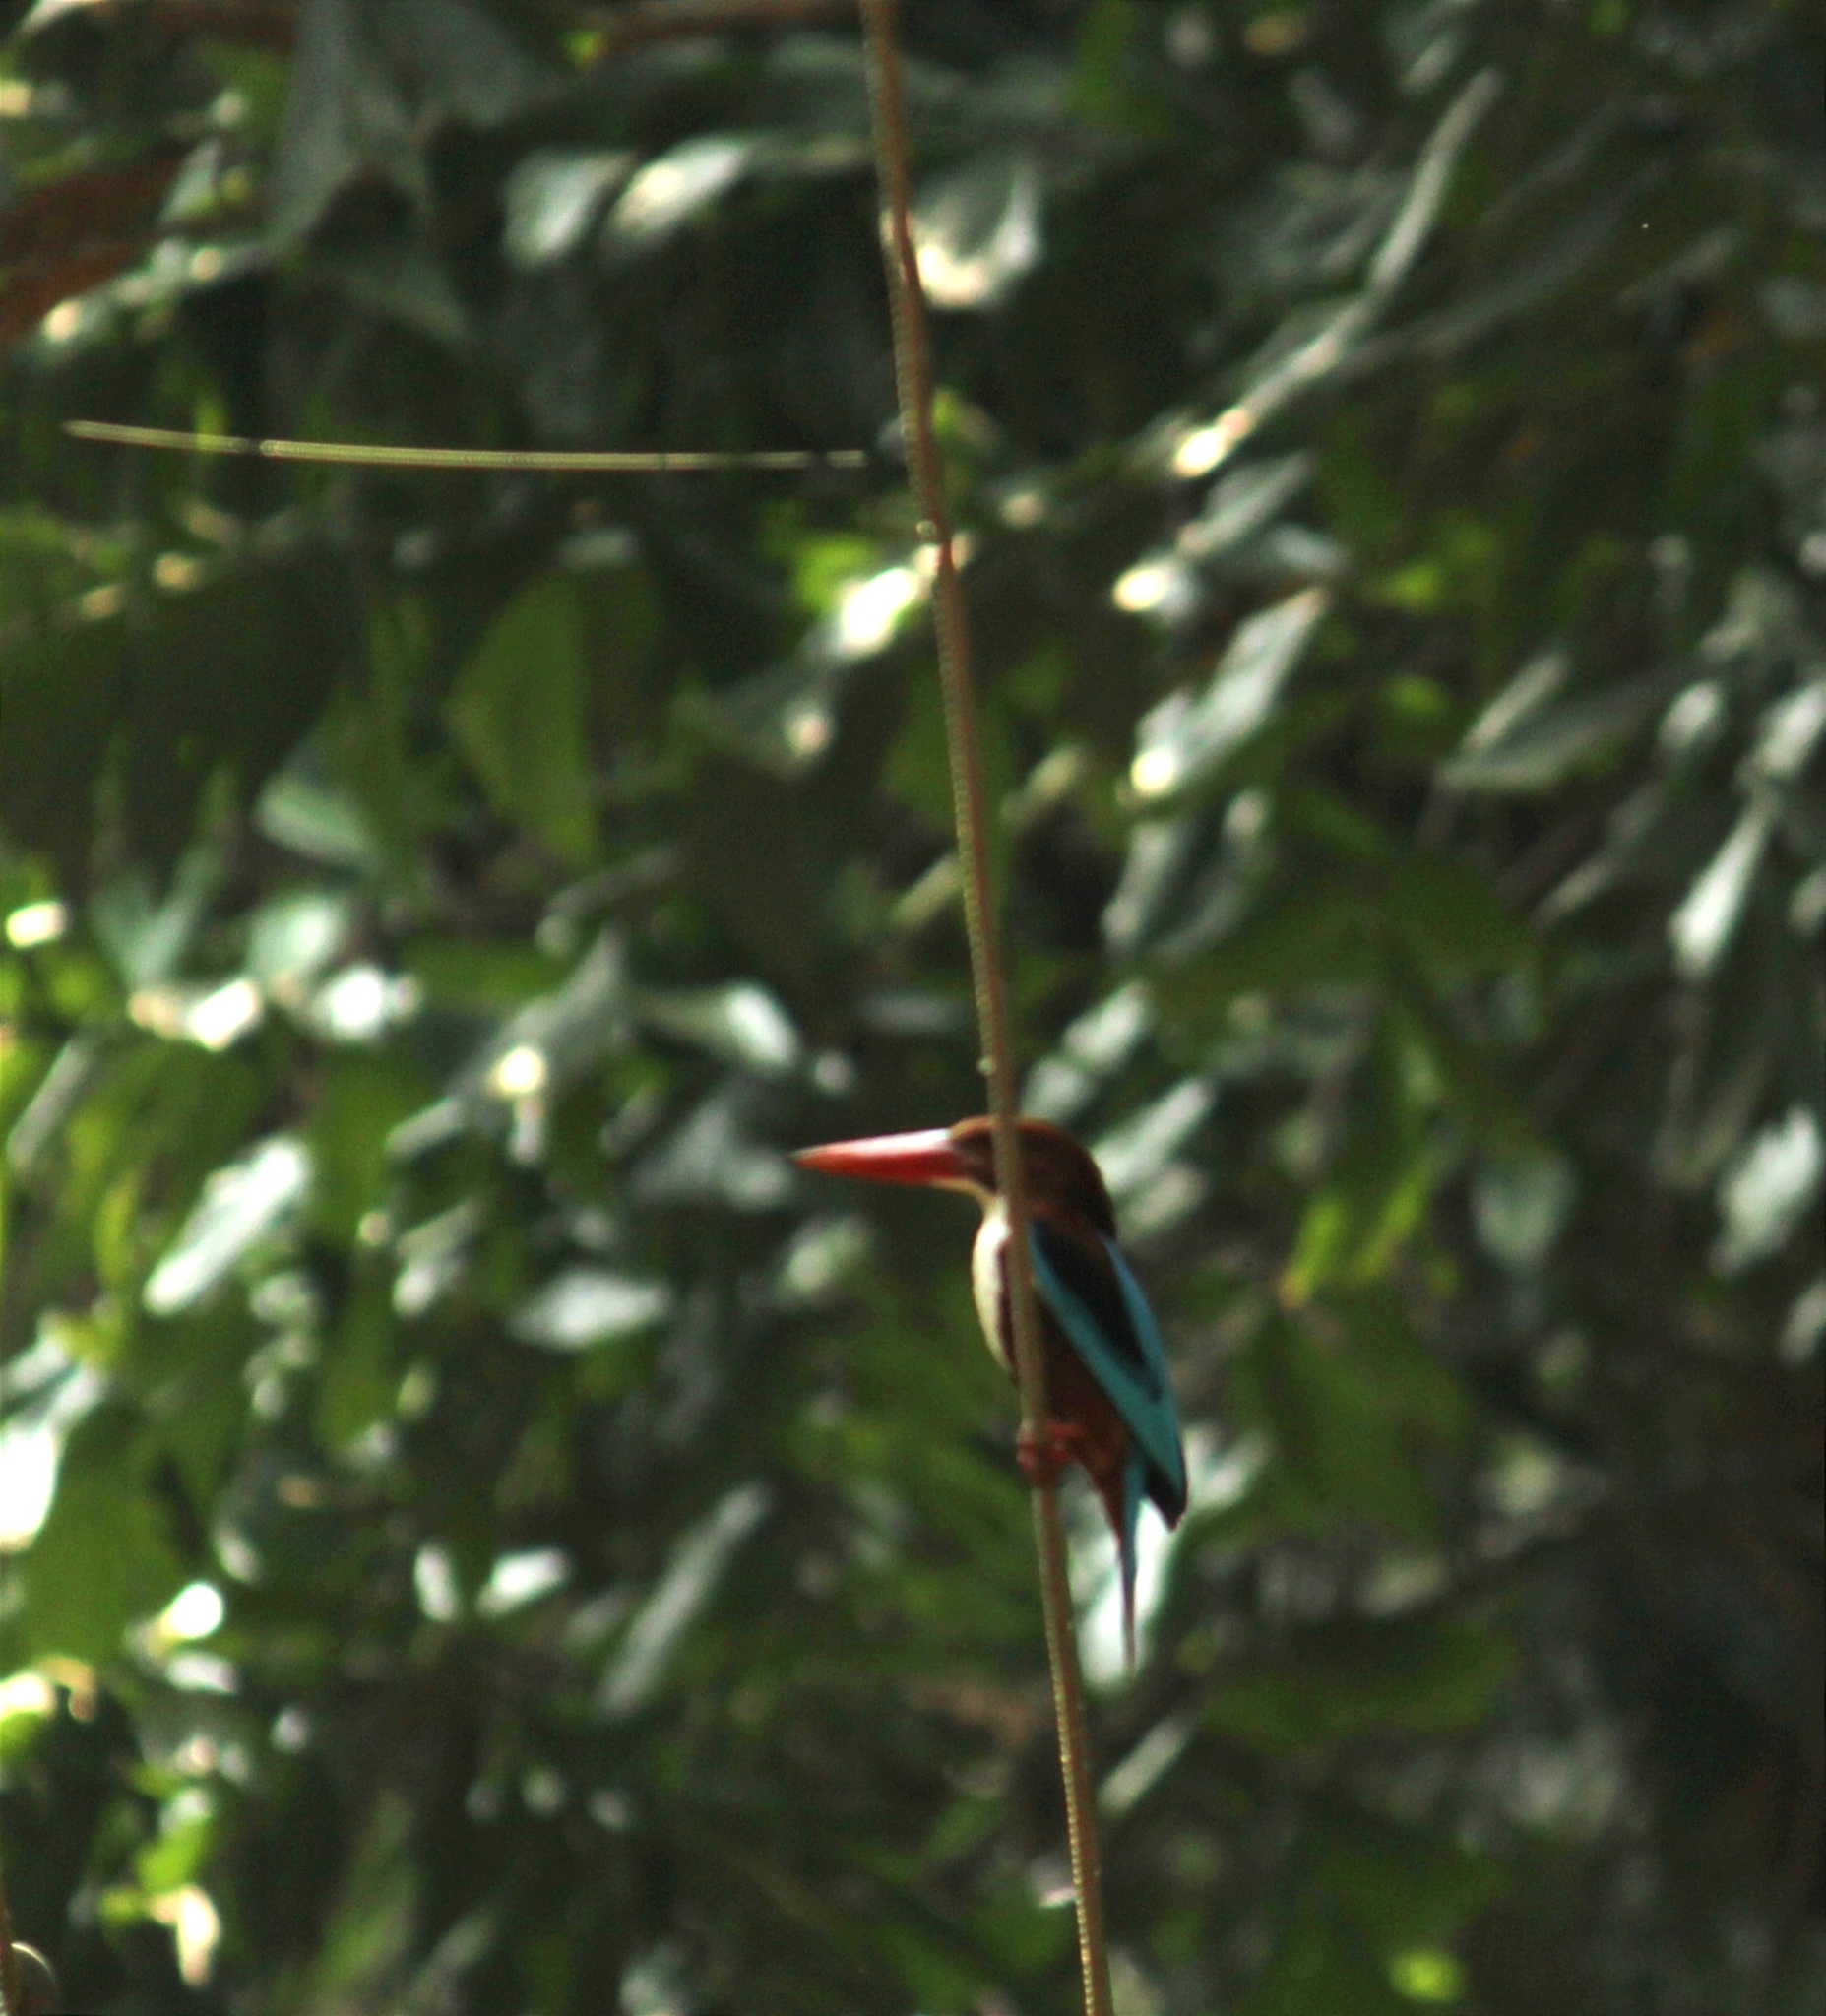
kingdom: Animalia
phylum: Chordata
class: Aves
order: Coraciiformes
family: Alcedinidae
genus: Halcyon
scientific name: Halcyon smyrnensis
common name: White-throated kingfisher
